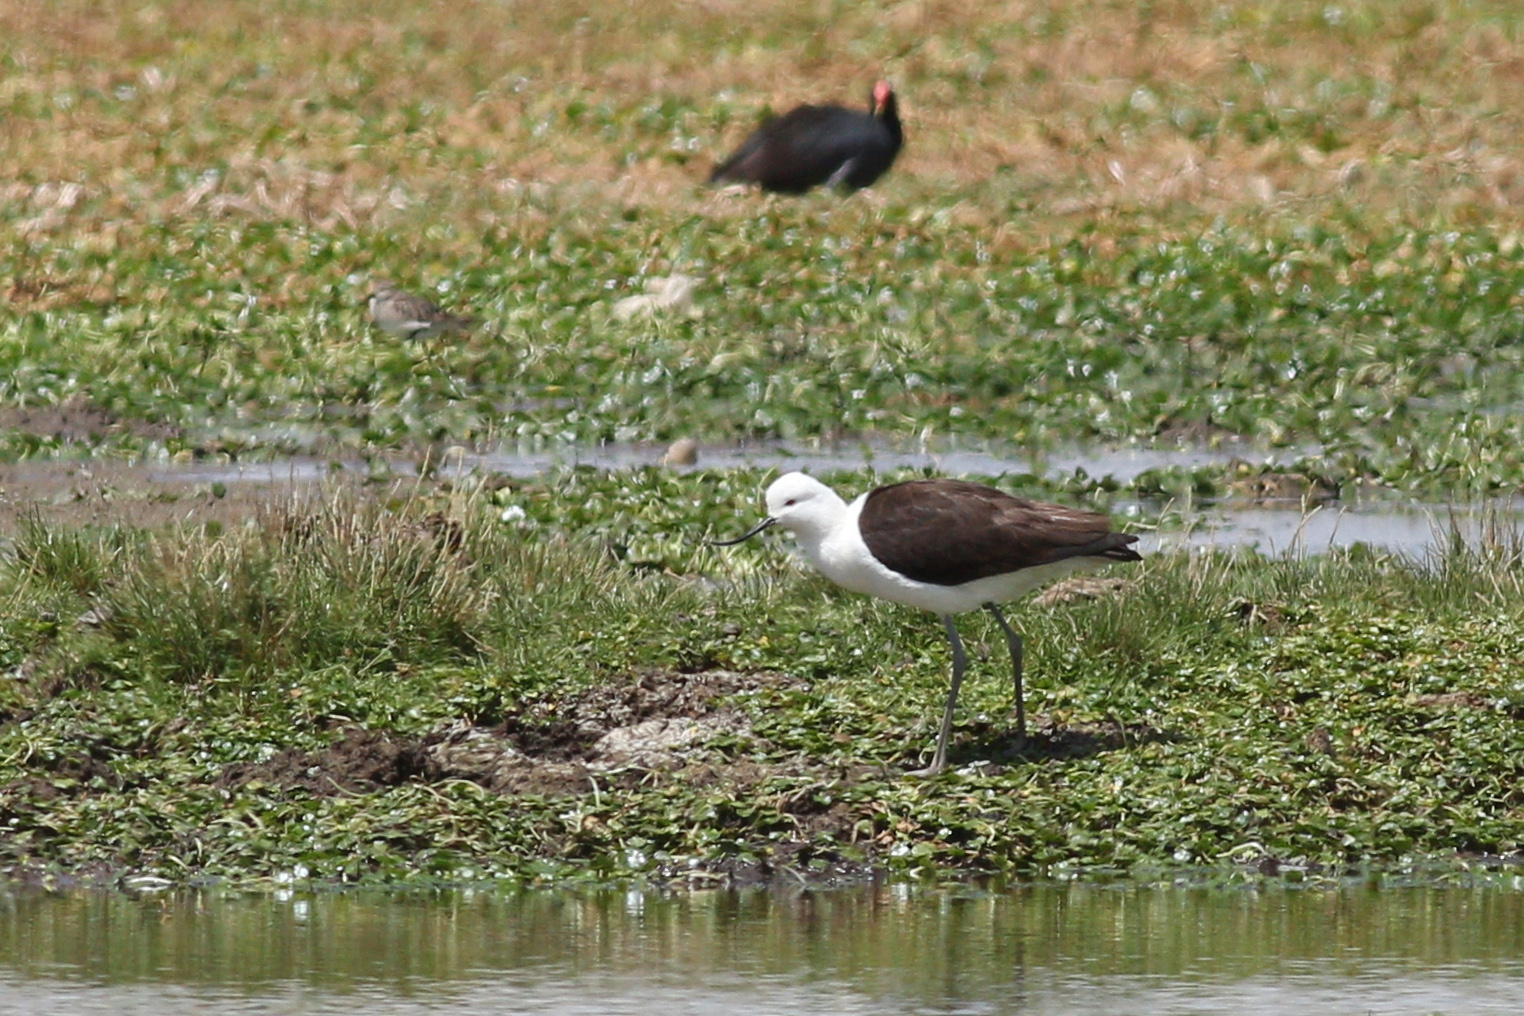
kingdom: Animalia
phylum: Chordata
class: Aves
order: Charadriiformes
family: Recurvirostridae
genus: Recurvirostra
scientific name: Recurvirostra andina
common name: Andean avocet
